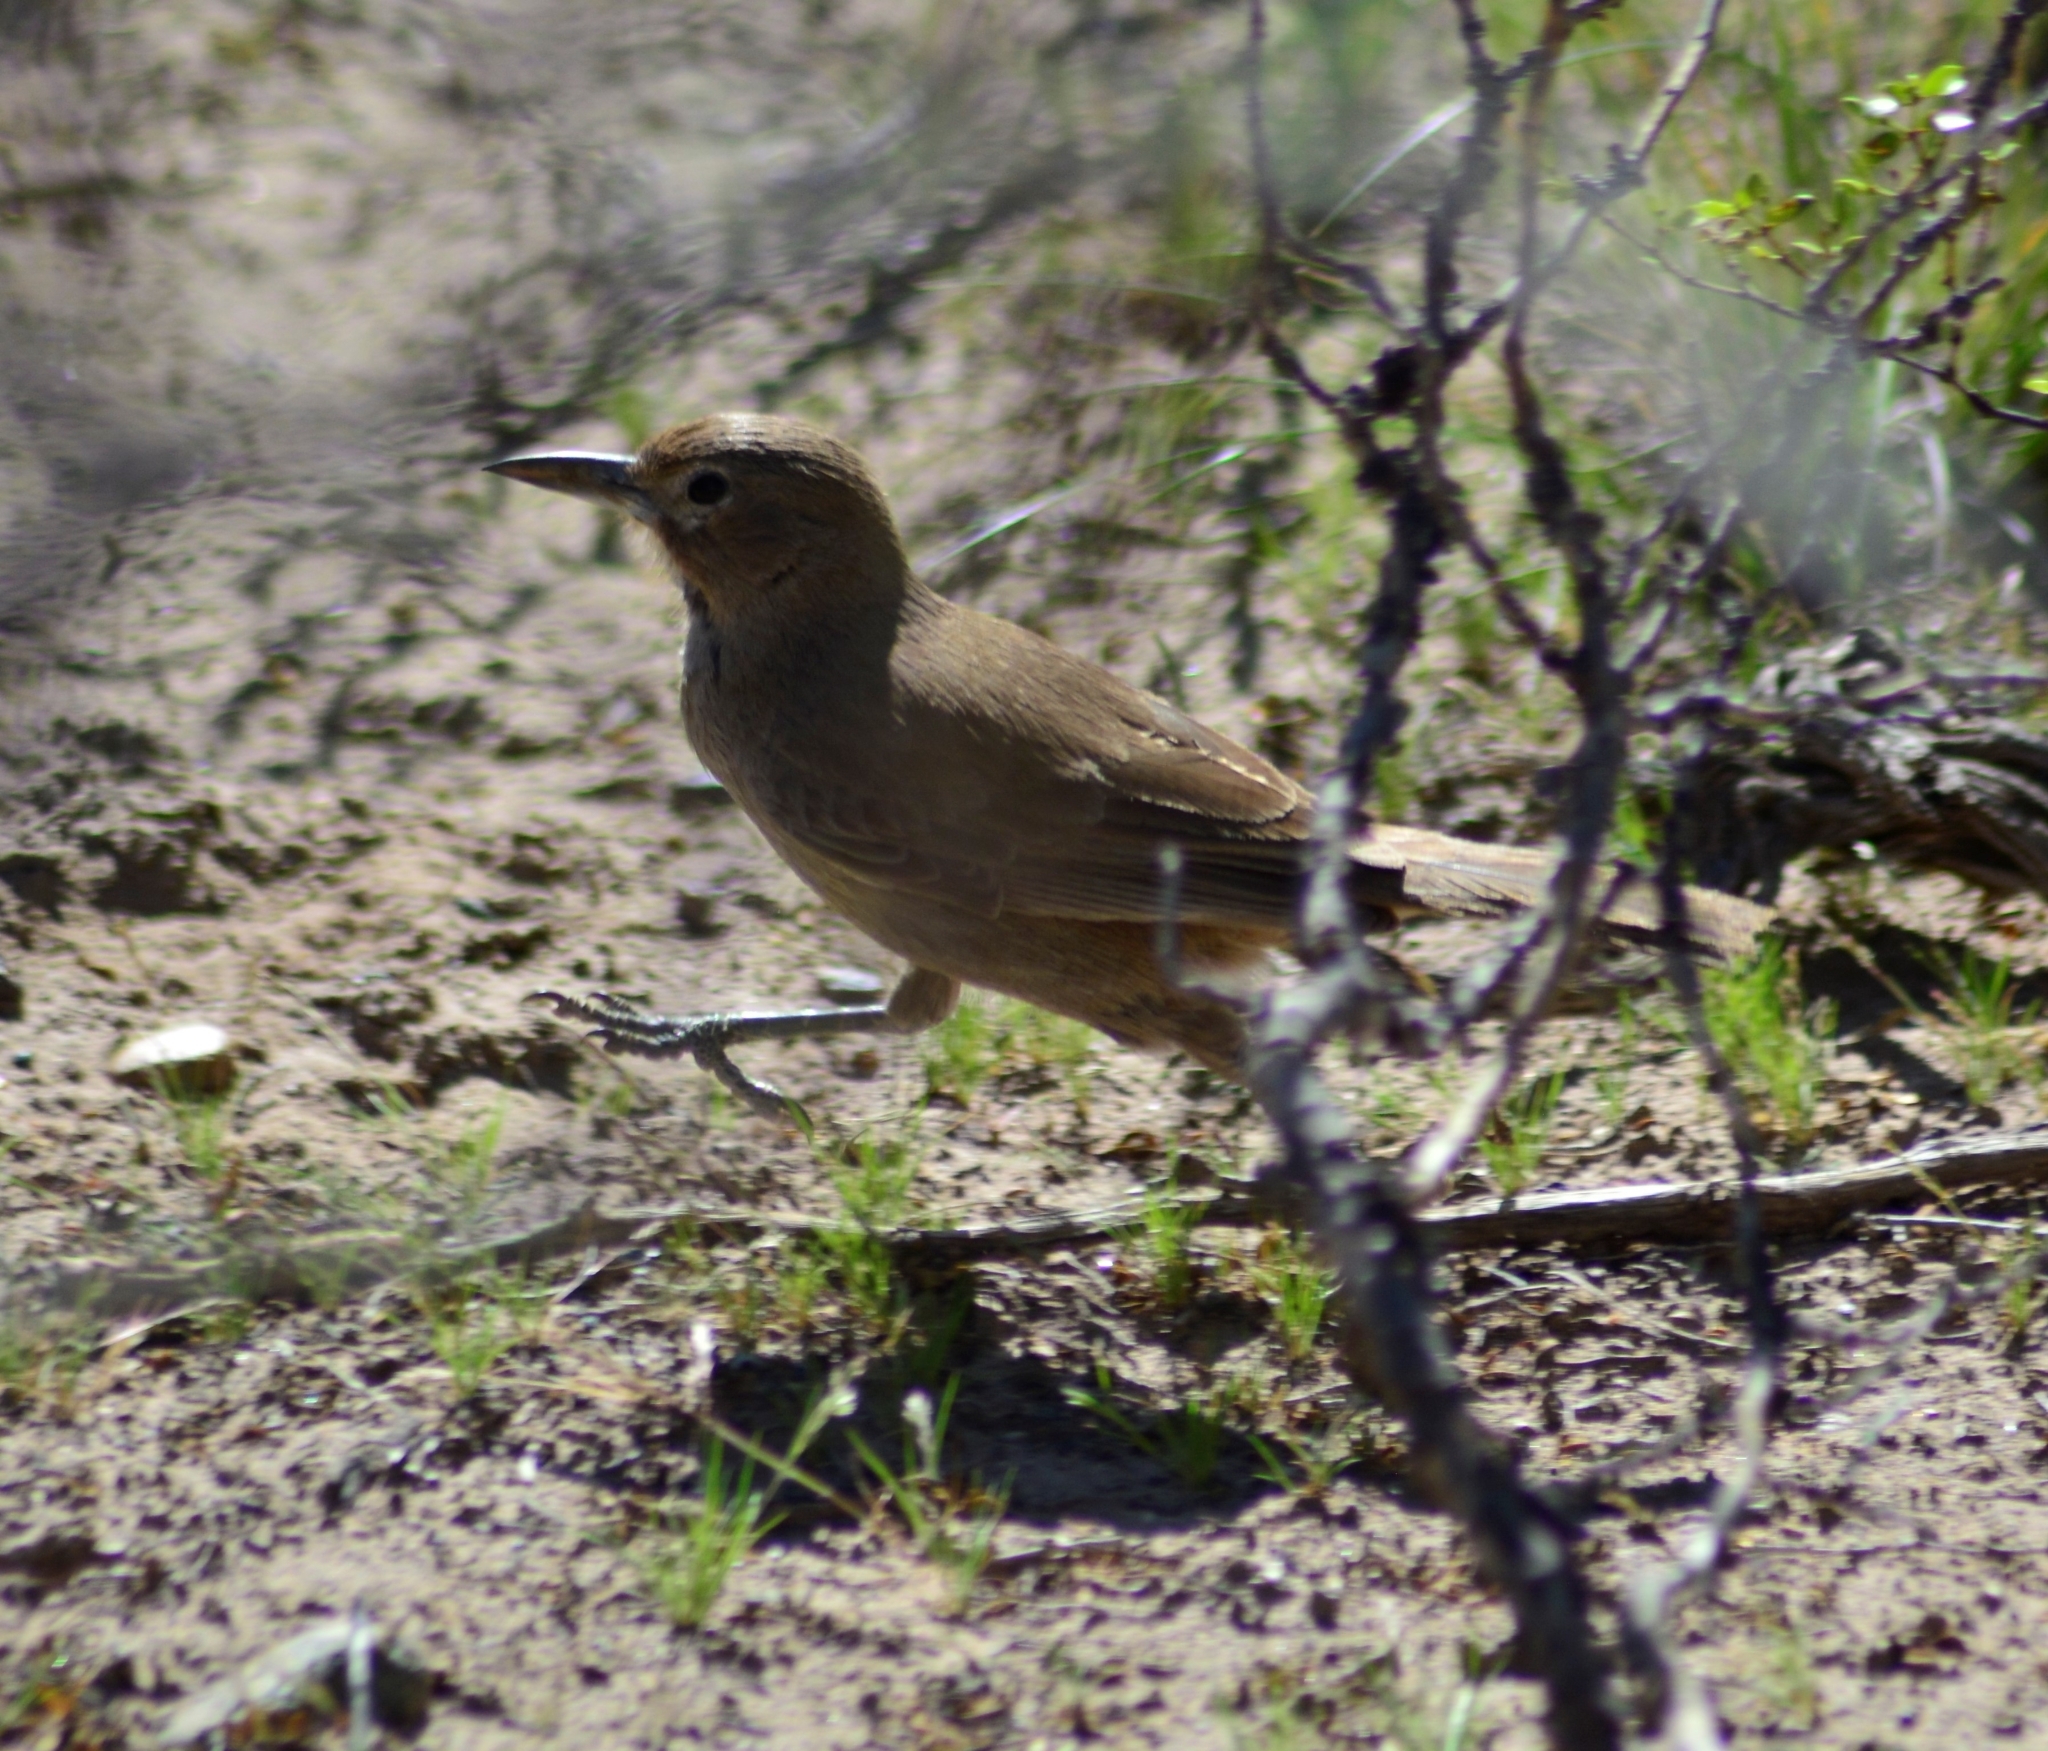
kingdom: Animalia
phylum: Chordata
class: Aves
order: Passeriformes
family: Furnariidae
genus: Pseudoseisura
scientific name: Pseudoseisura gutturalis
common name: White-throated cacholote
